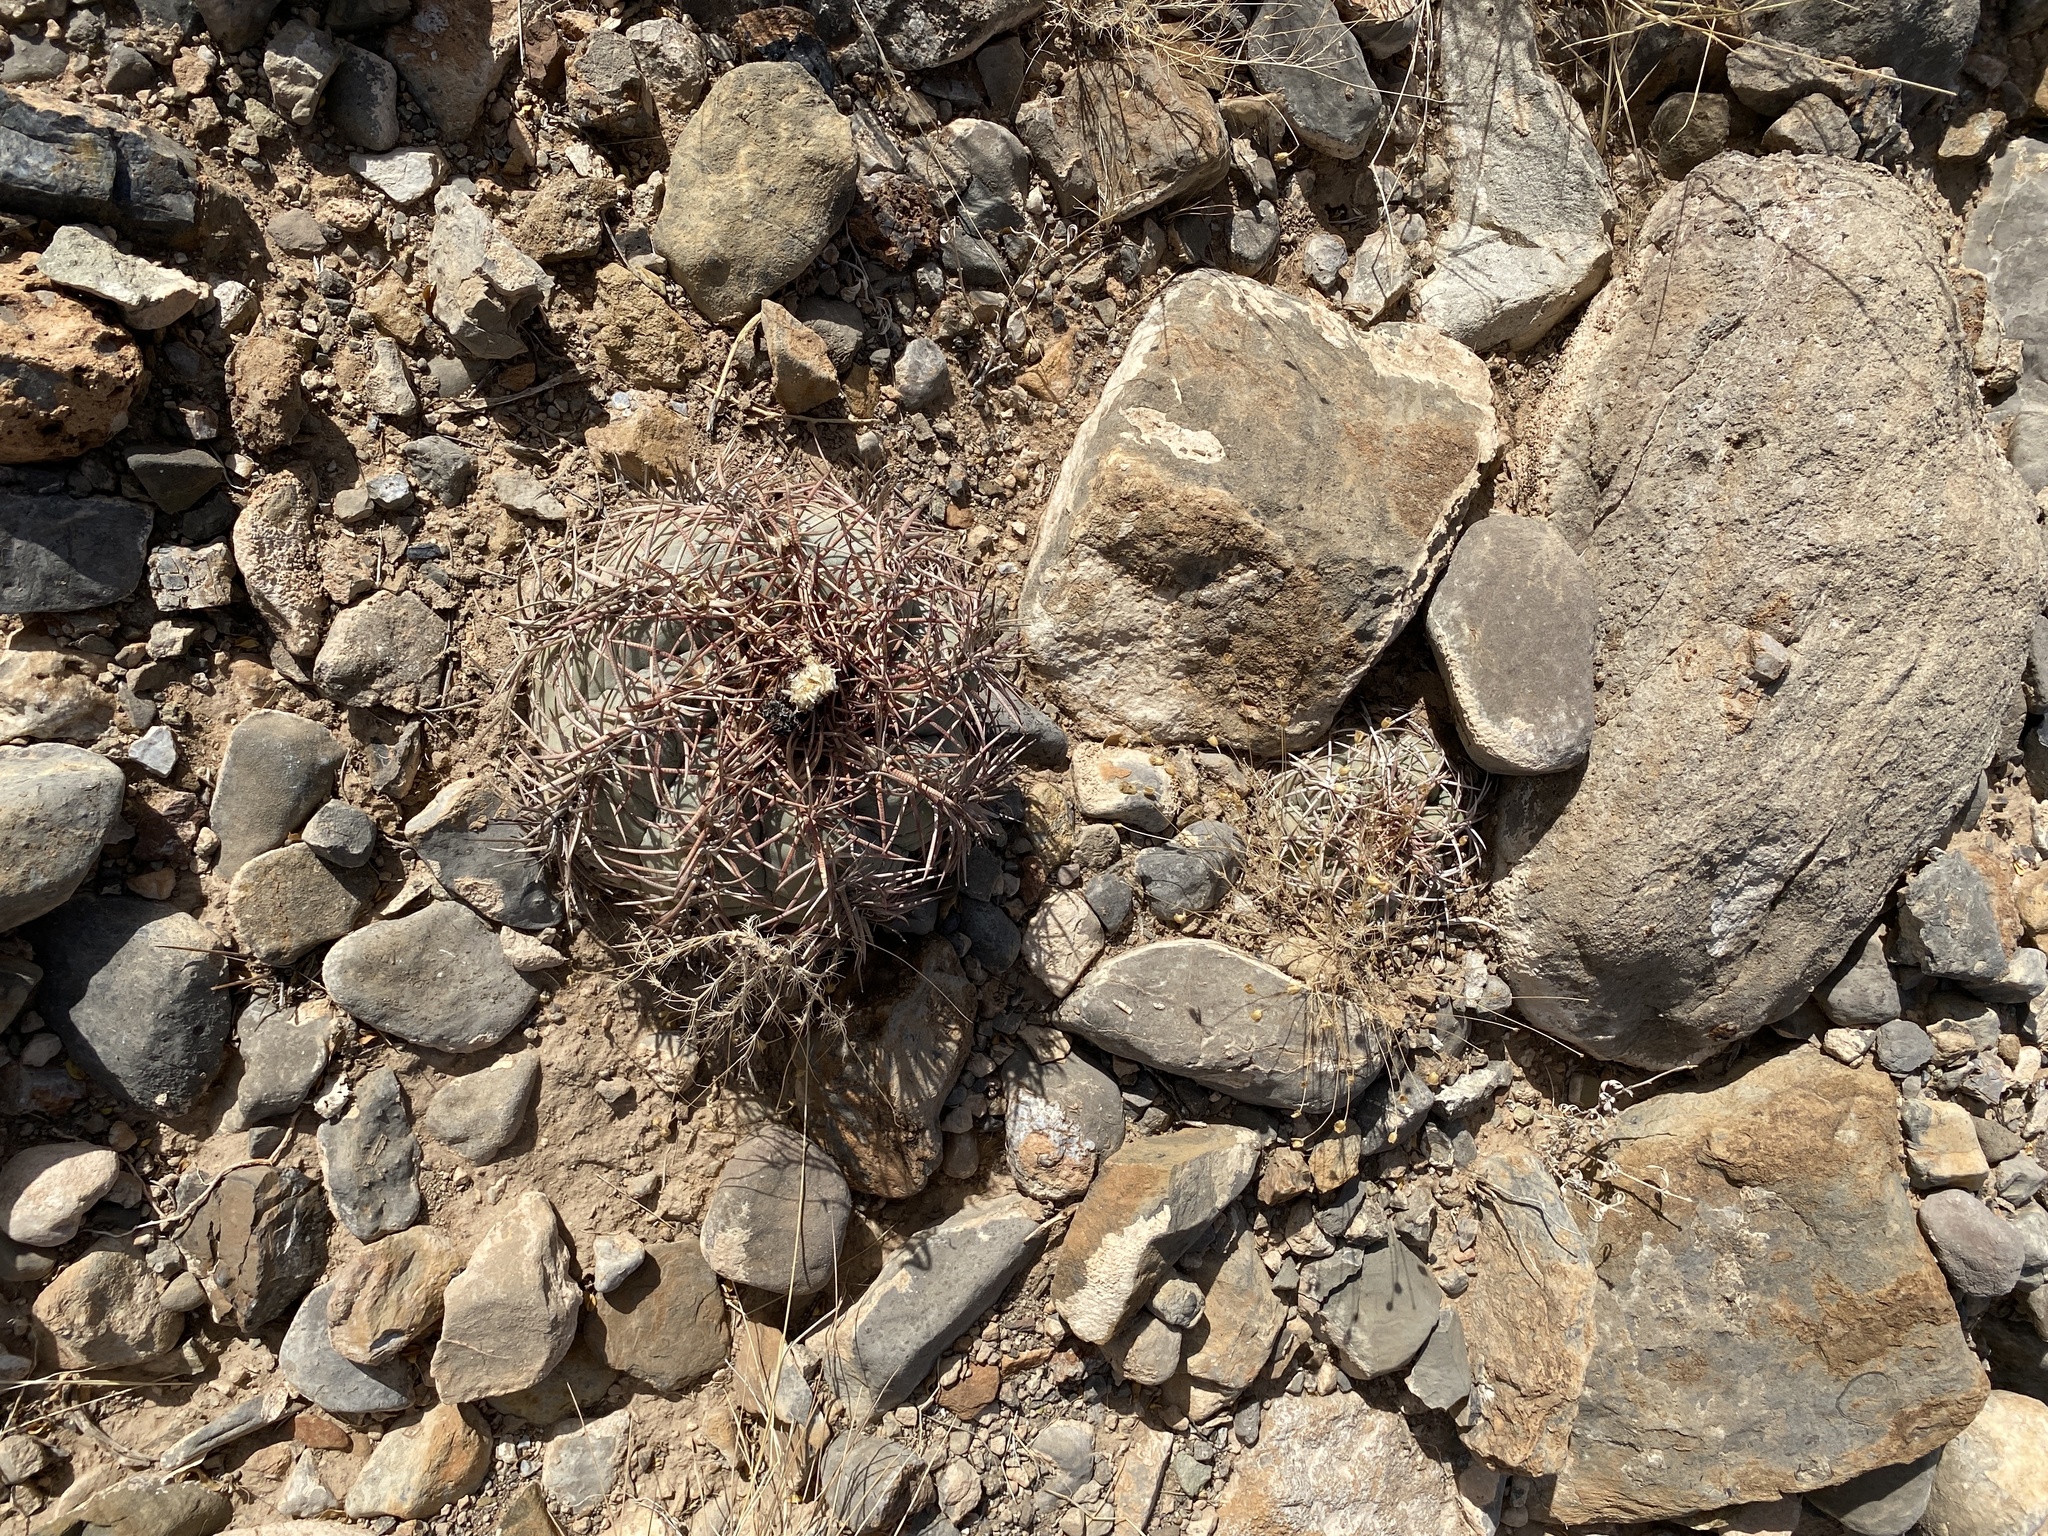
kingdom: Plantae
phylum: Tracheophyta
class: Magnoliopsida
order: Caryophyllales
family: Cactaceae
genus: Echinocactus
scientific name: Echinocactus horizonthalonius
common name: Devilshead
